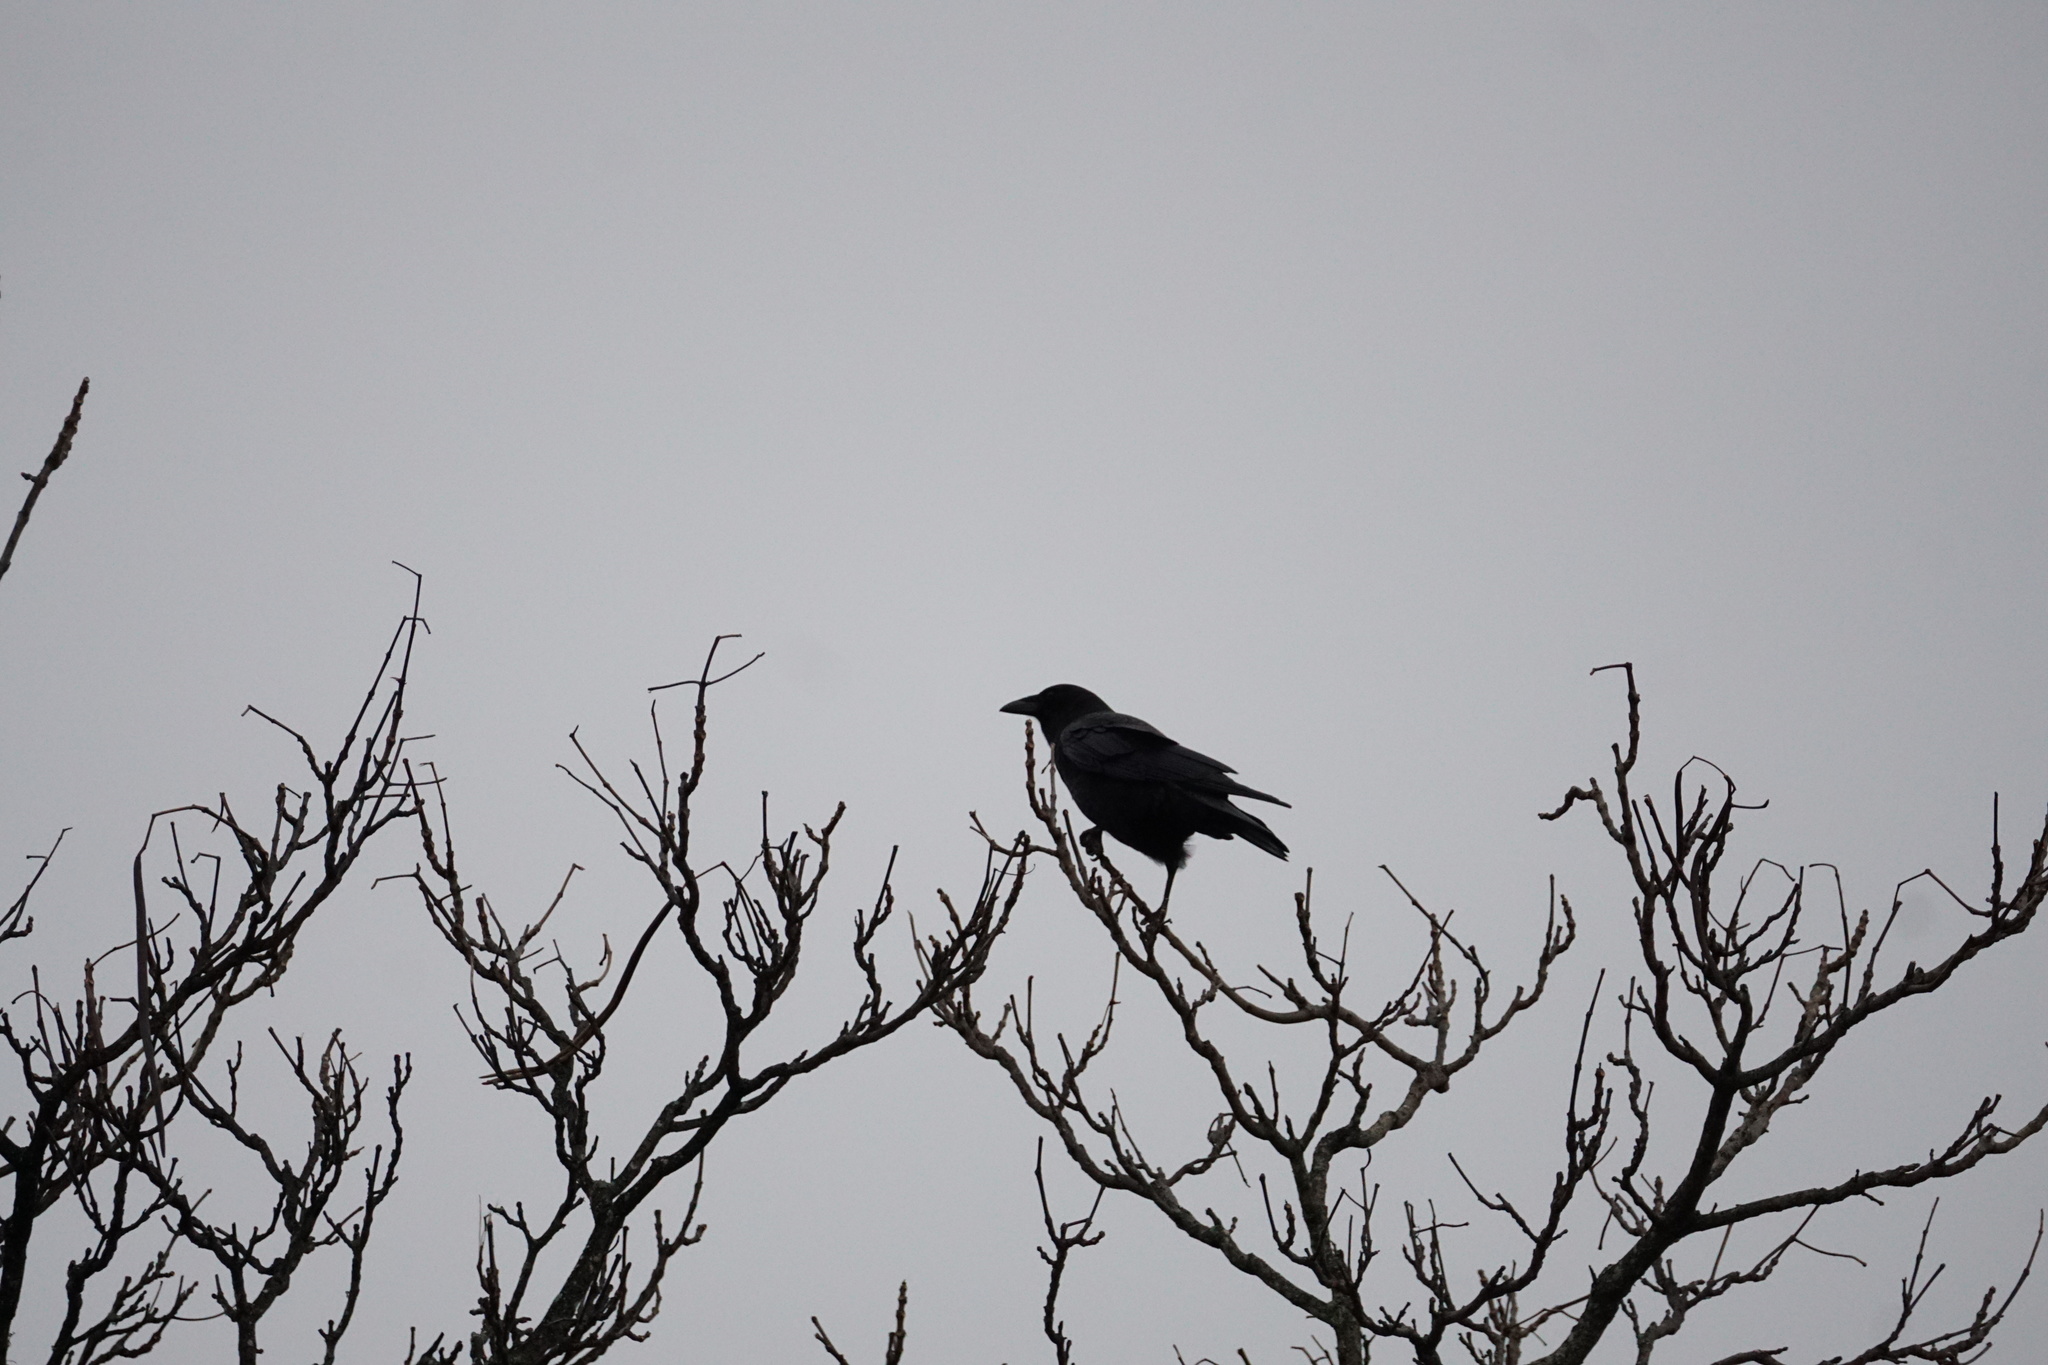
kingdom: Animalia
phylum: Chordata
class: Aves
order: Passeriformes
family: Corvidae
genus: Corvus
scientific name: Corvus brachyrhynchos
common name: American crow
